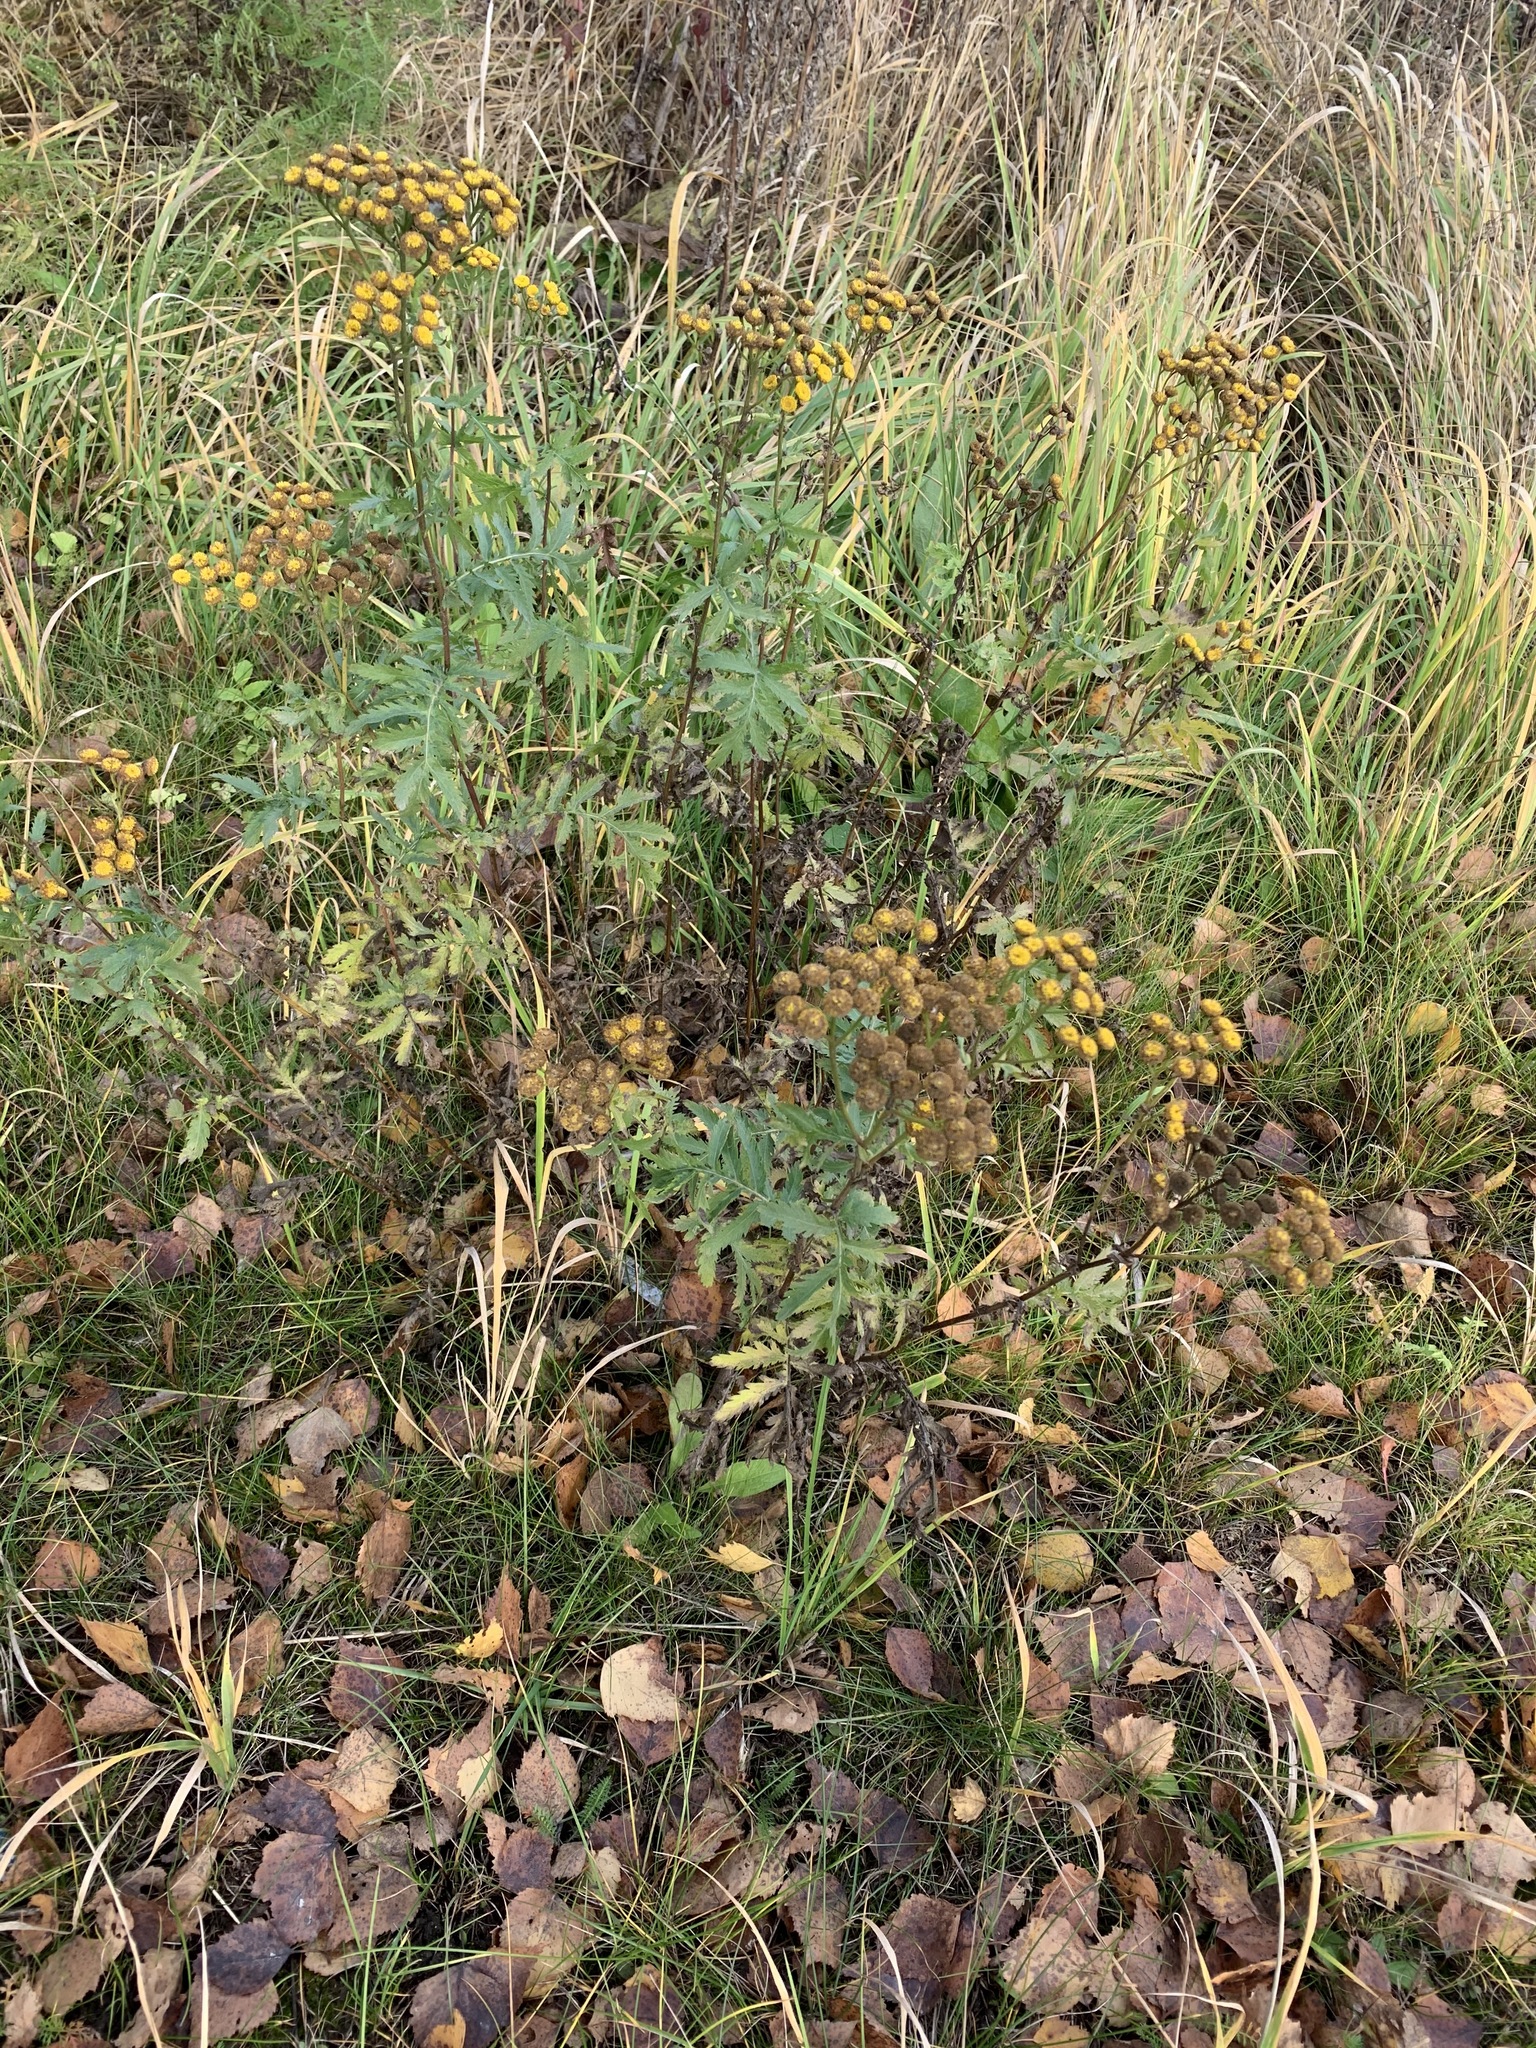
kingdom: Plantae
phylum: Tracheophyta
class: Magnoliopsida
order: Asterales
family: Asteraceae
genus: Tanacetum
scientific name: Tanacetum vulgare
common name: Common tansy
